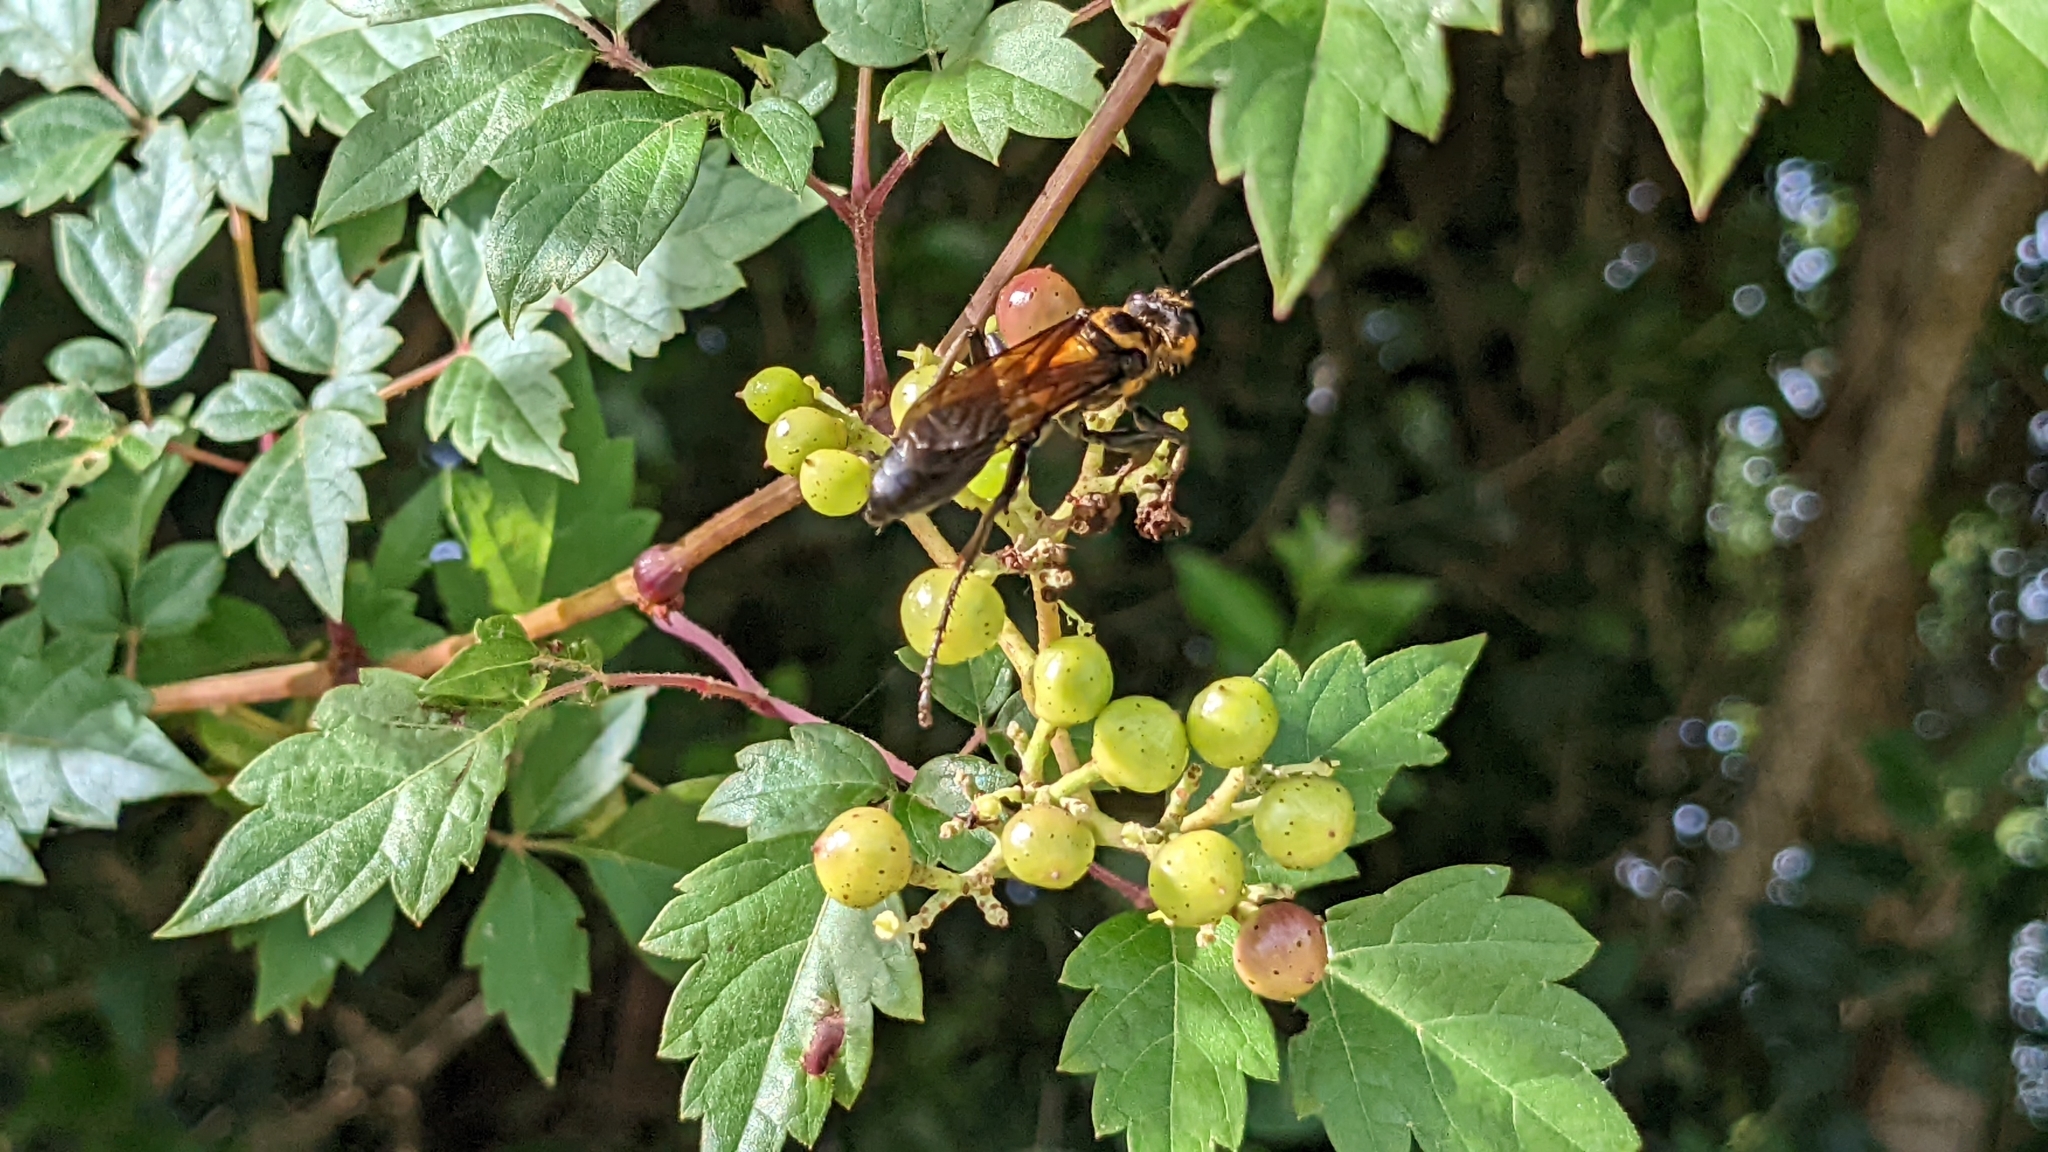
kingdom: Animalia
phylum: Arthropoda
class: Insecta
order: Hymenoptera
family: Sphecidae
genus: Sphex
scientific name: Sphex habenus
